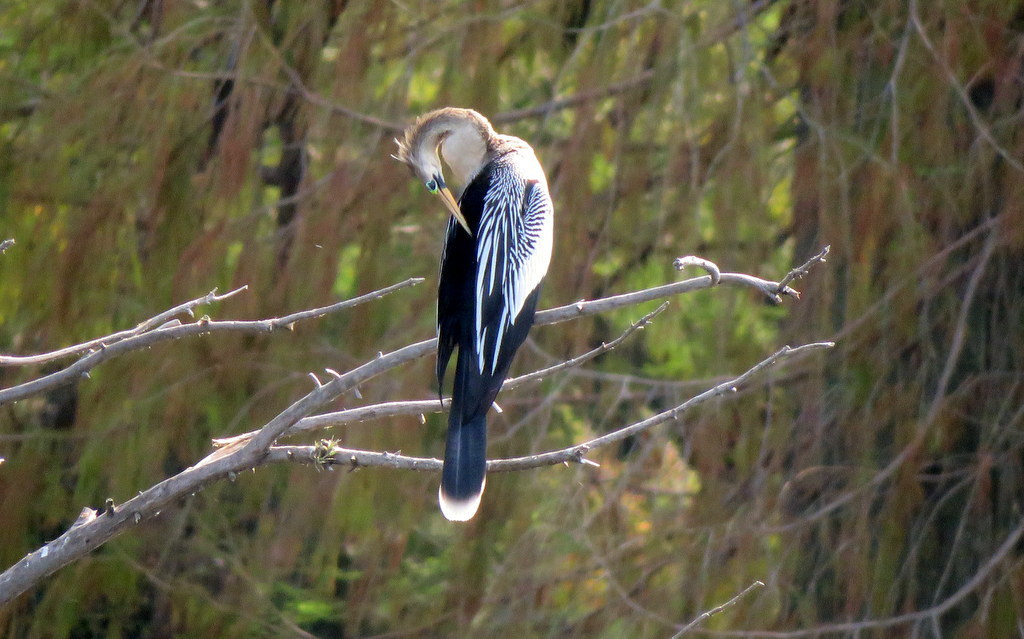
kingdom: Animalia
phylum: Chordata
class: Aves
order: Suliformes
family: Anhingidae
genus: Anhinga
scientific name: Anhinga anhinga
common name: Anhinga
